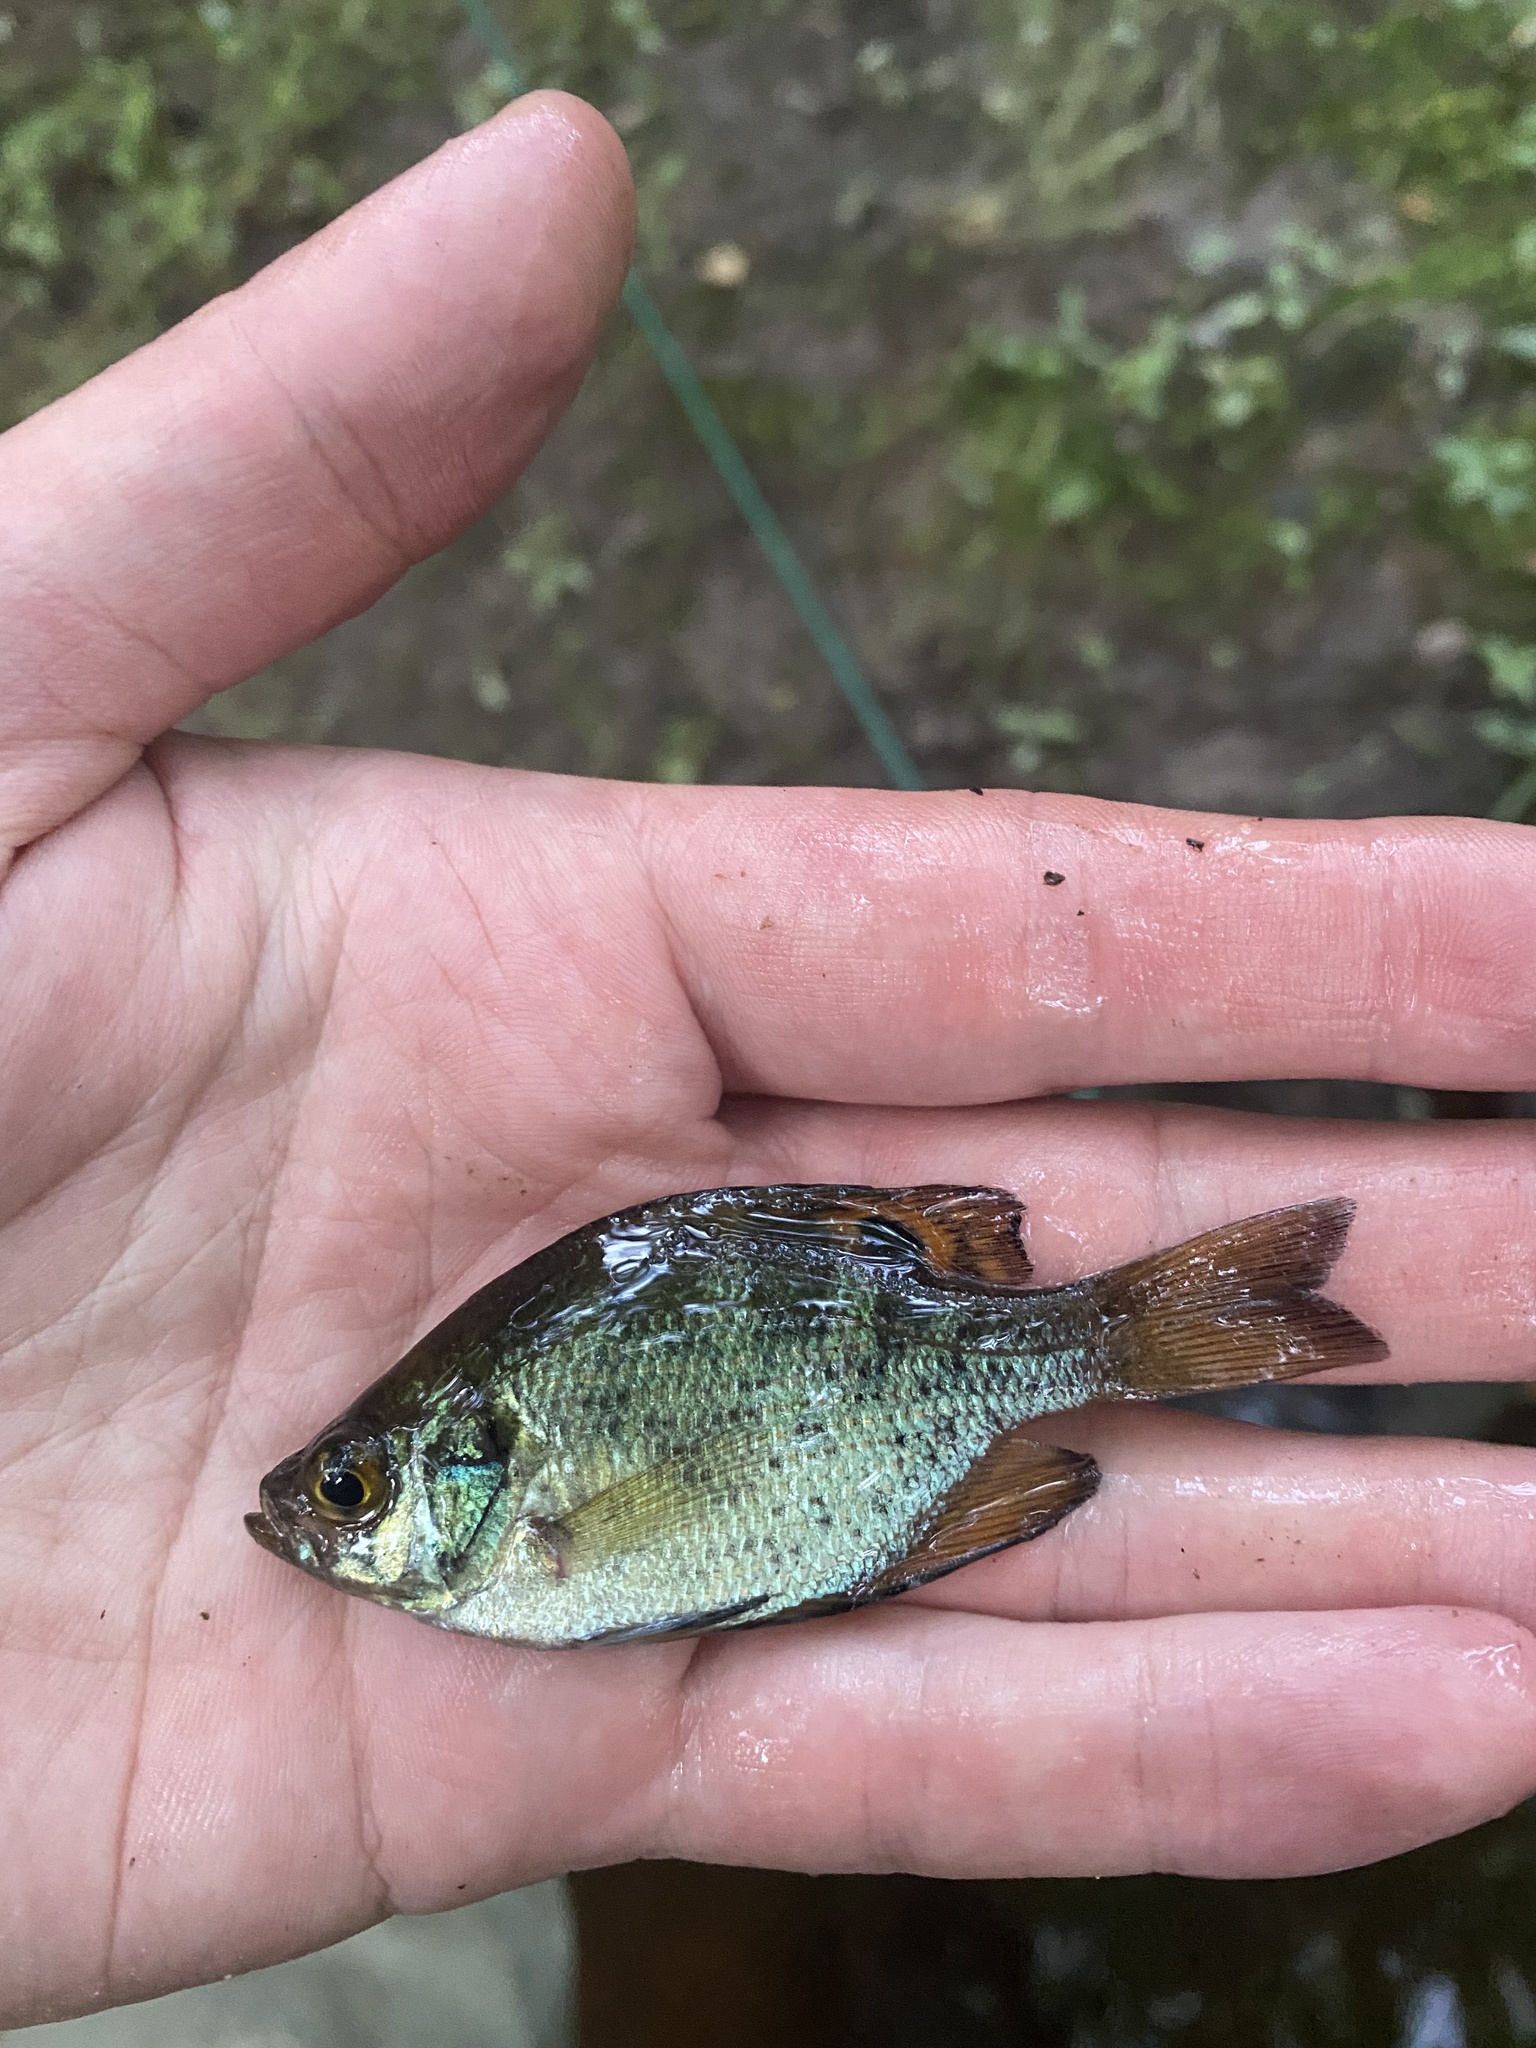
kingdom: Animalia
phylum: Chordata
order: Perciformes
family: Centrarchidae
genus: Centrarchus
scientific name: Centrarchus macropterus
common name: Flier
